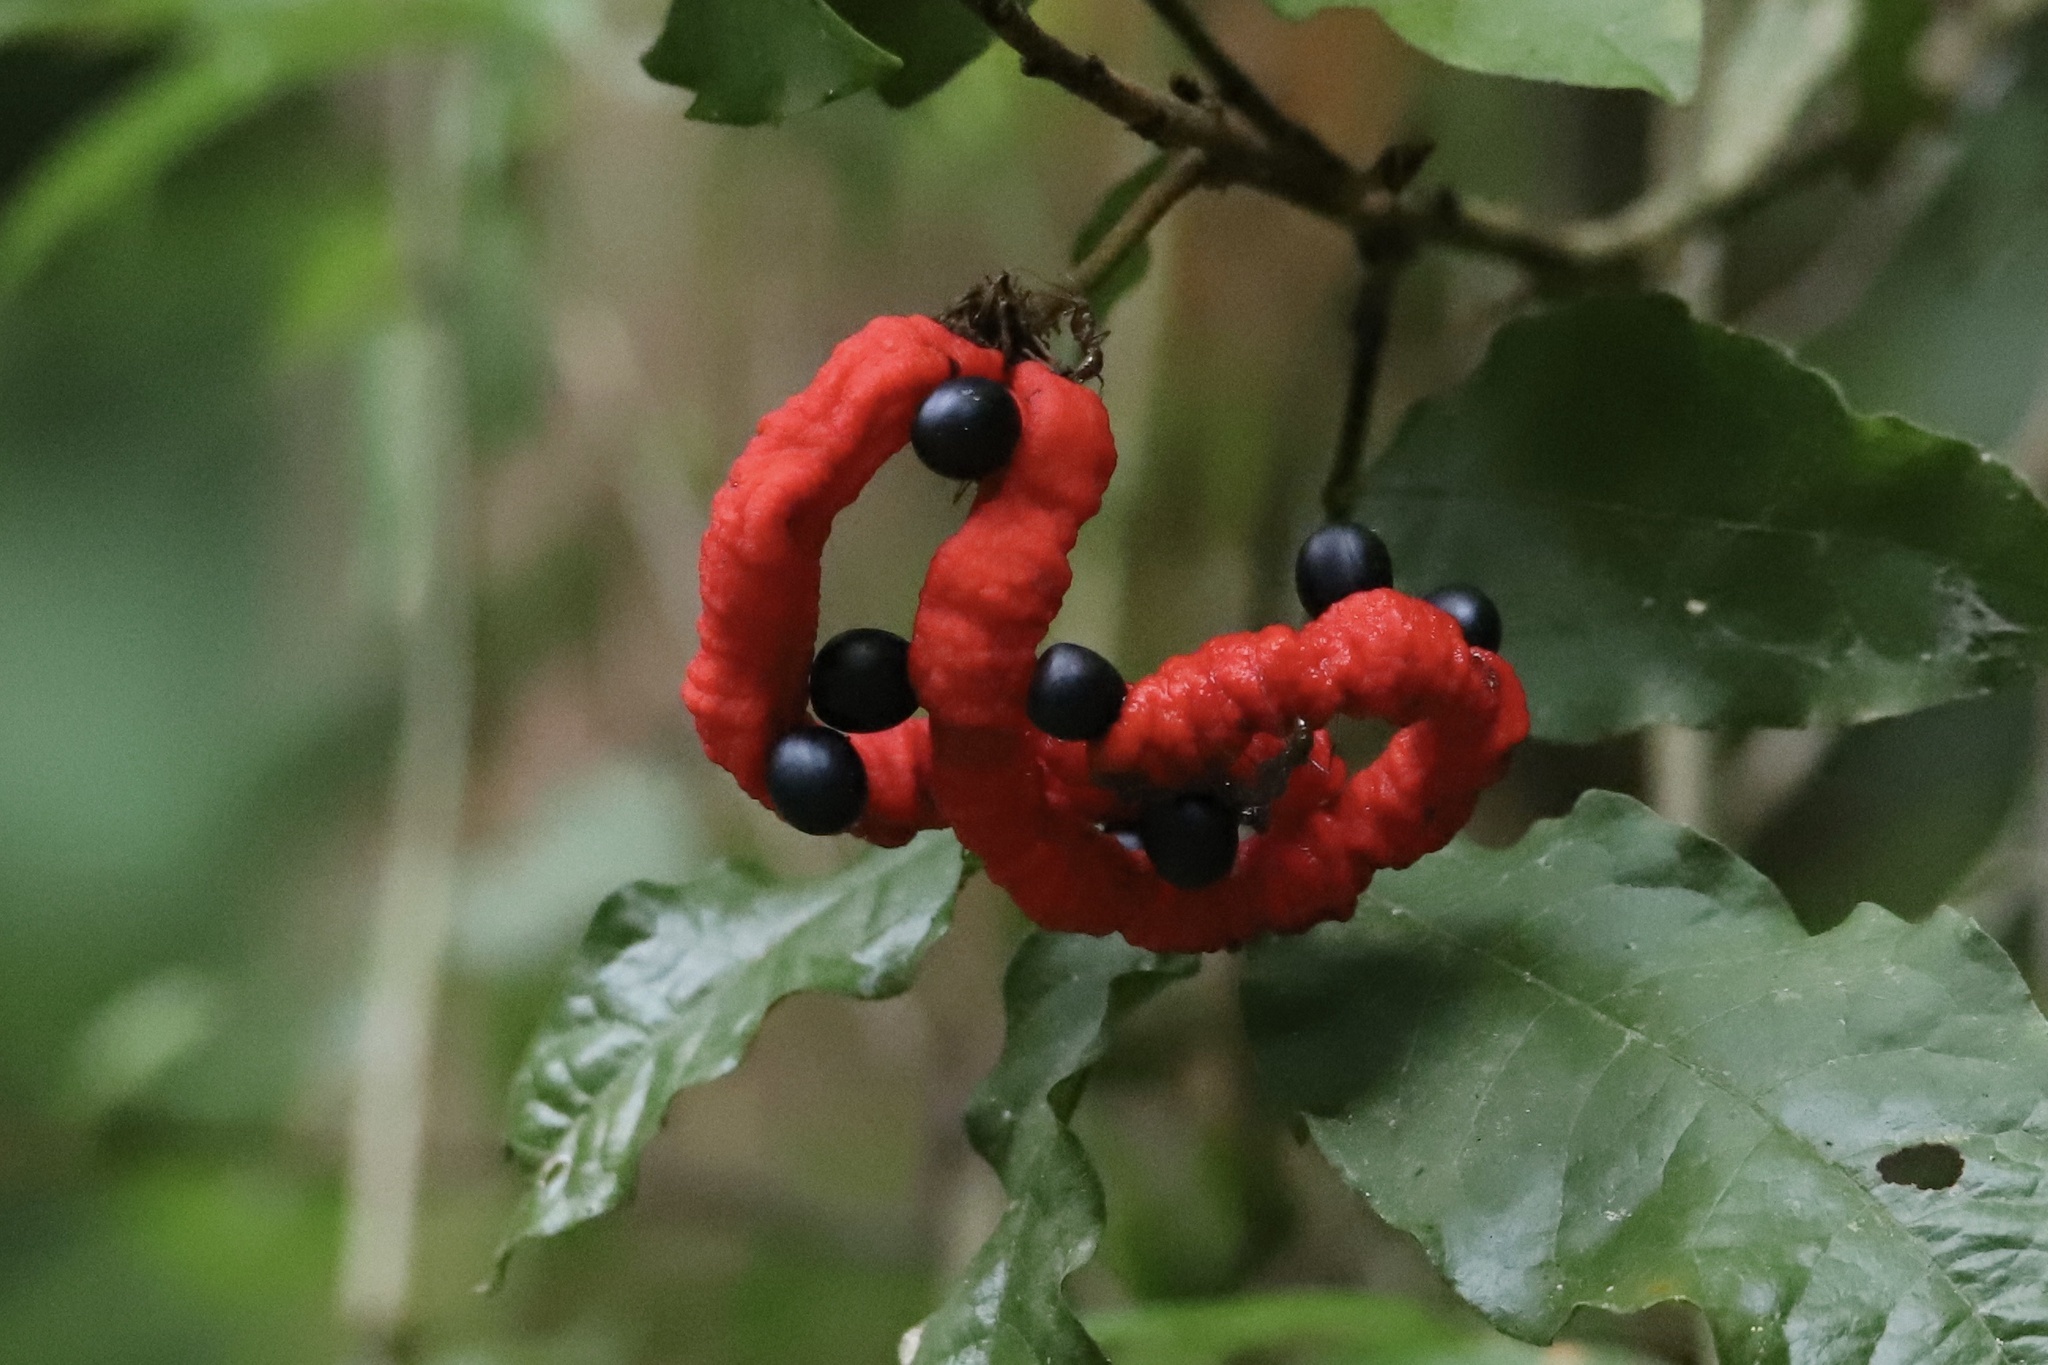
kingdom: Plantae
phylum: Tracheophyta
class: Magnoliopsida
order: Fabales
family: Fabaceae
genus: Cojoba
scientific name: Cojoba rufescens
